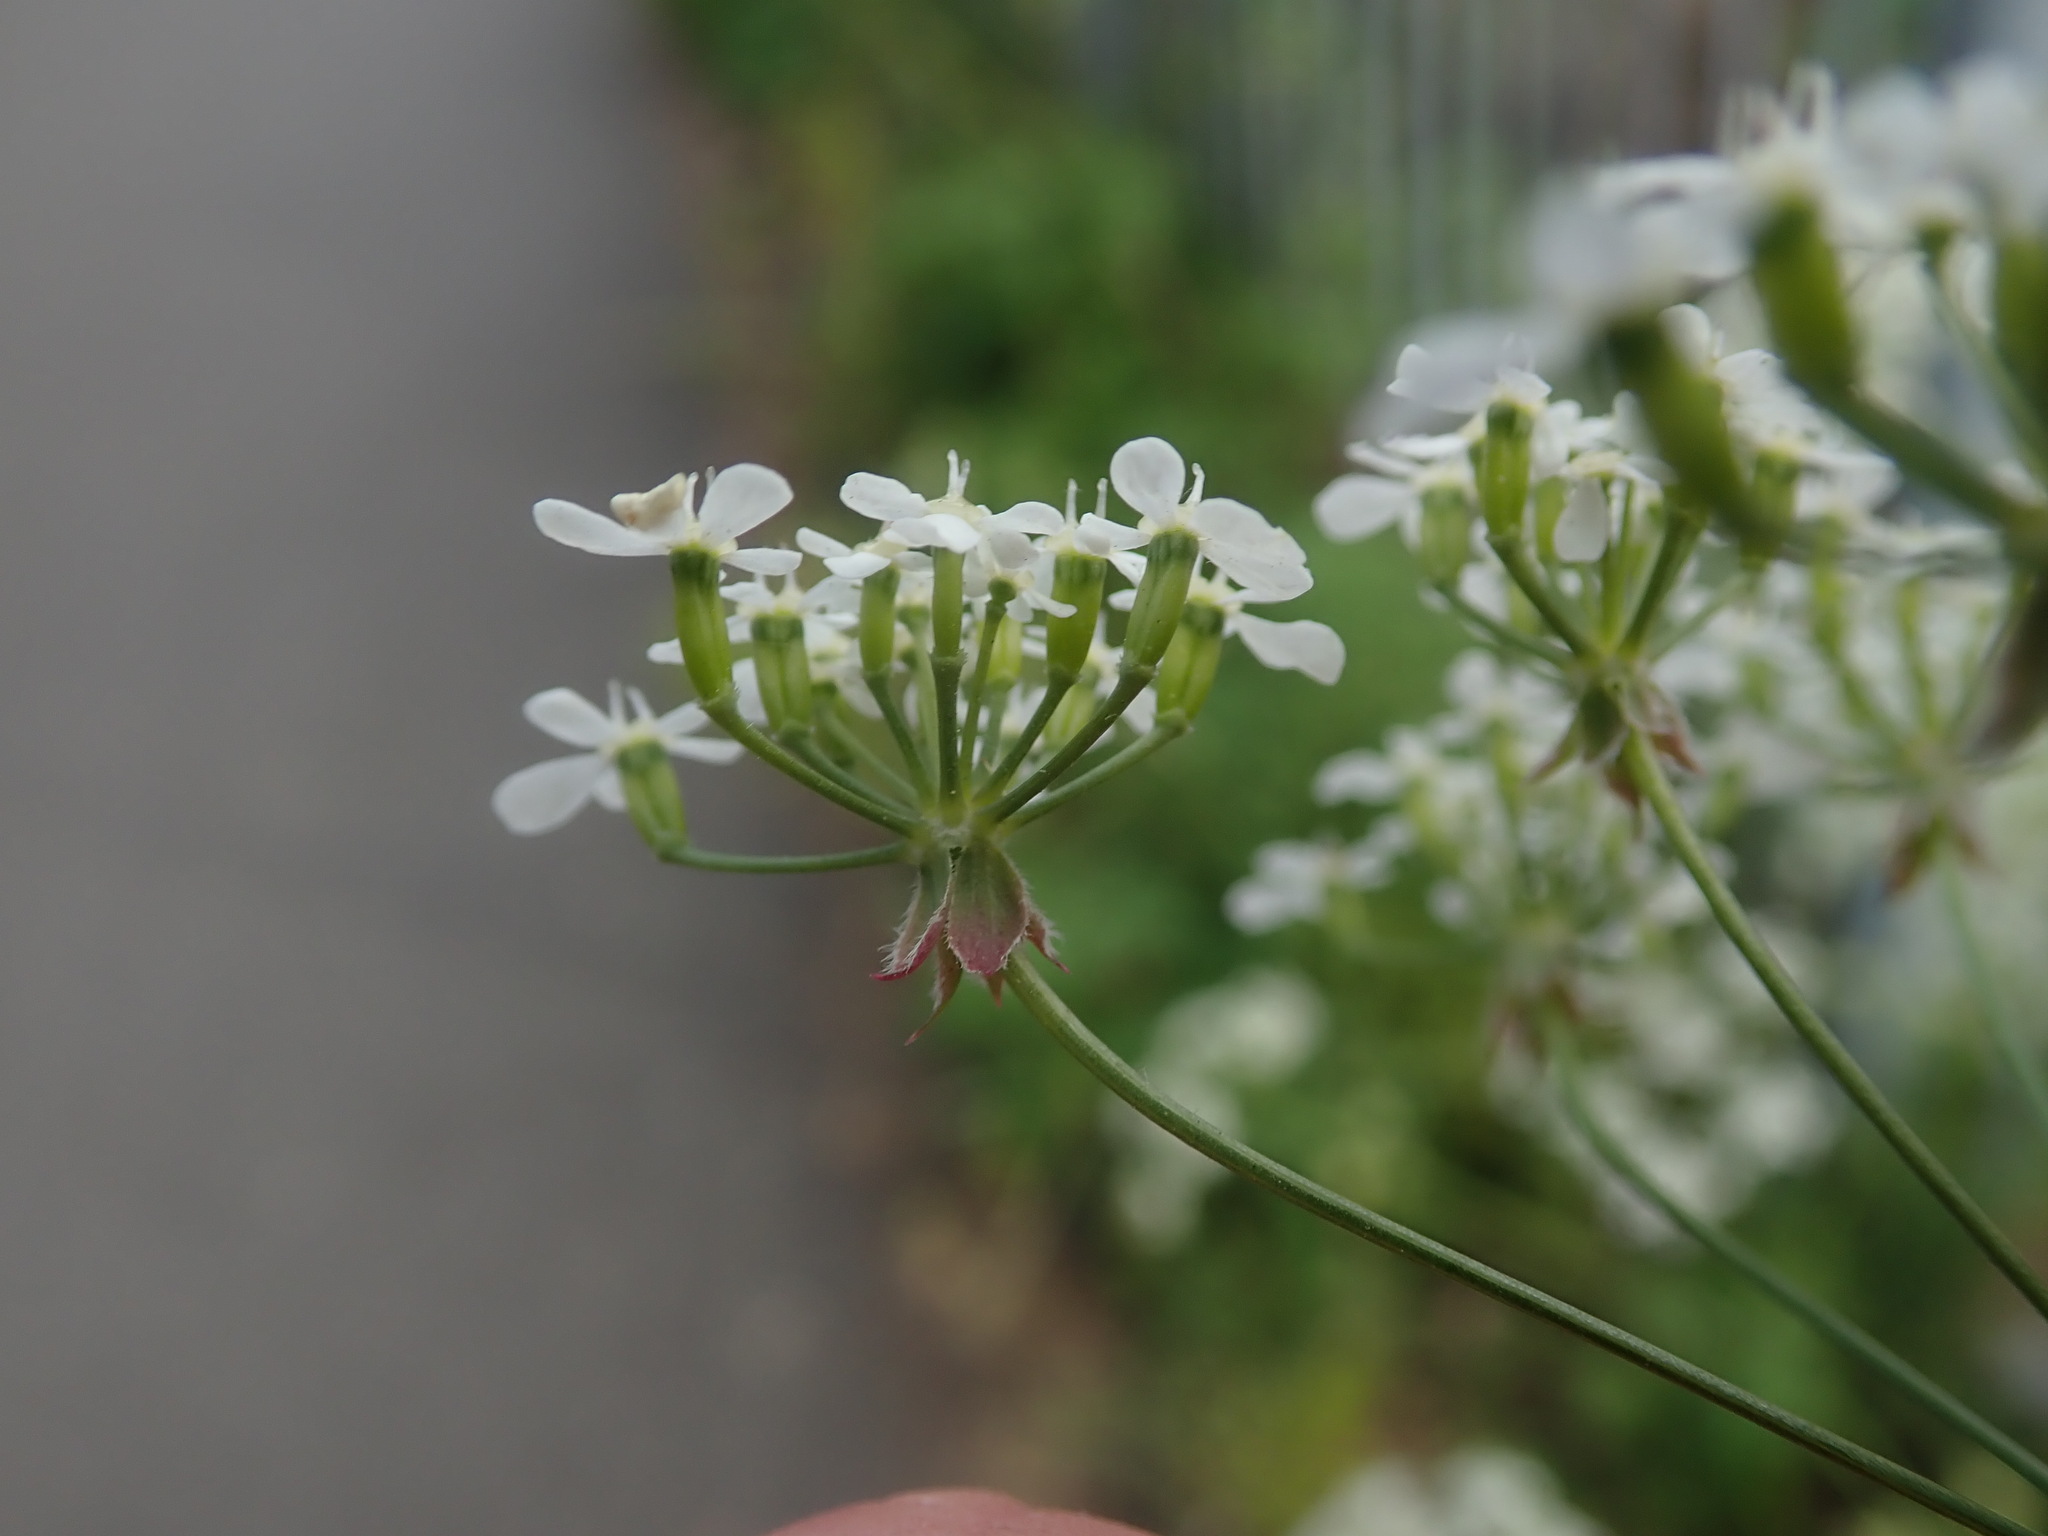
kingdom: Plantae
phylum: Tracheophyta
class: Magnoliopsida
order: Apiales
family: Apiaceae
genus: Anthriscus
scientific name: Anthriscus sylvestris
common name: Cow parsley
